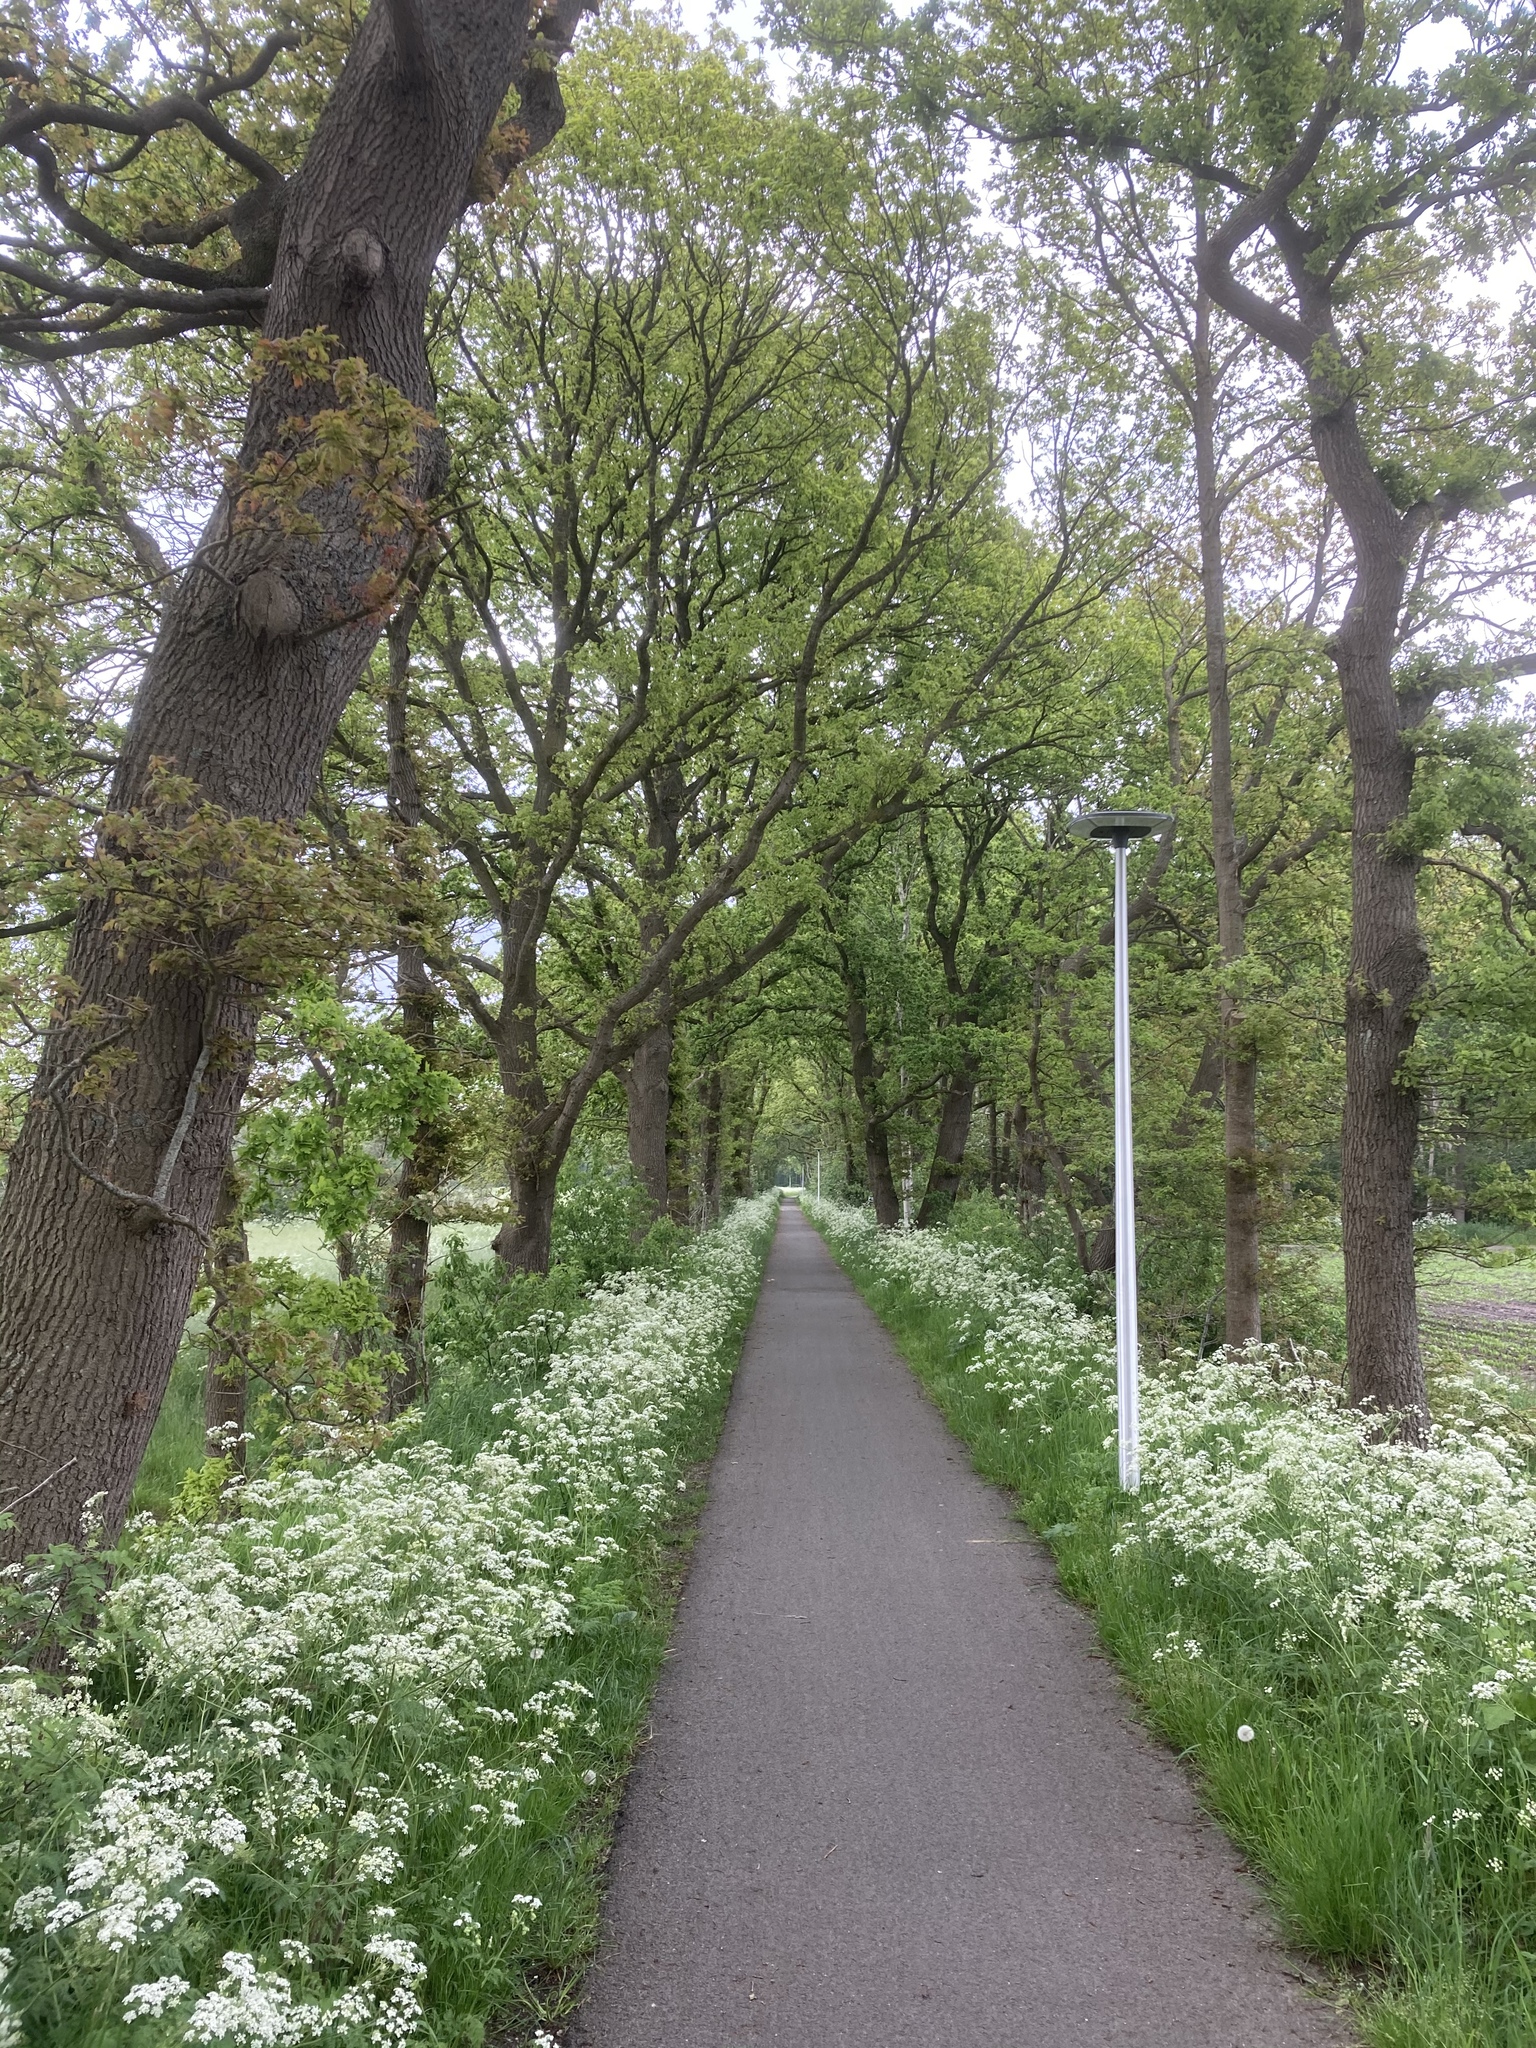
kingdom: Plantae
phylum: Tracheophyta
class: Magnoliopsida
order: Apiales
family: Apiaceae
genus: Anthriscus
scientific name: Anthriscus sylvestris
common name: Cow parsley
